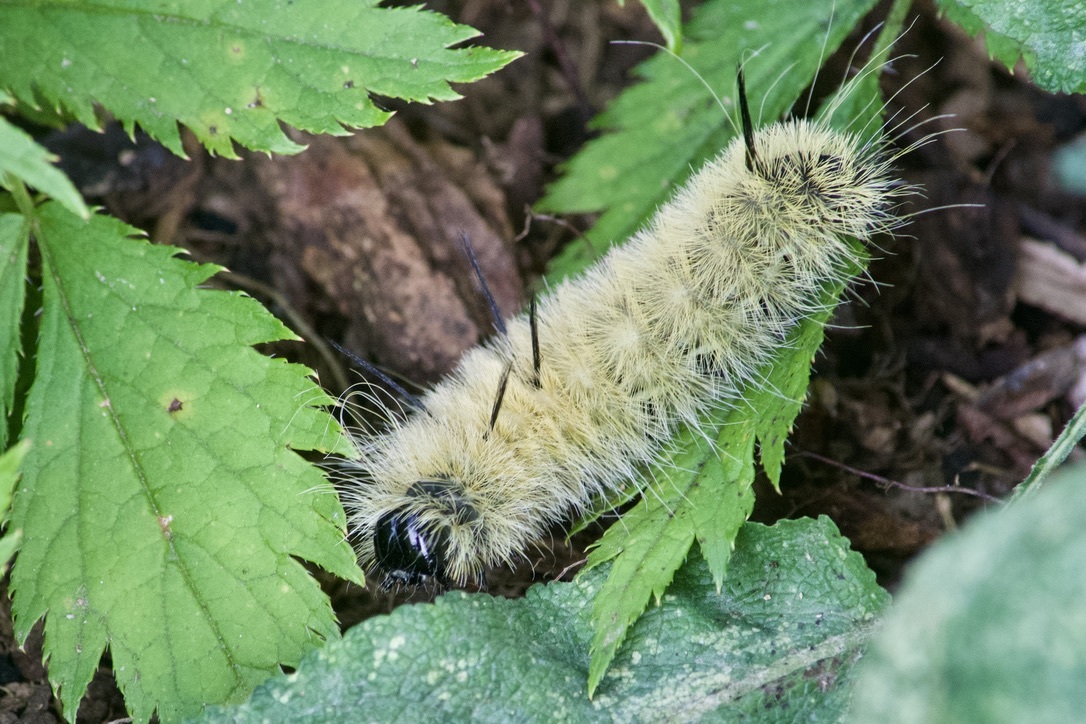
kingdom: Animalia
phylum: Arthropoda
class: Insecta
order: Lepidoptera
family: Noctuidae
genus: Acronicta
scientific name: Acronicta americana
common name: American dagger
